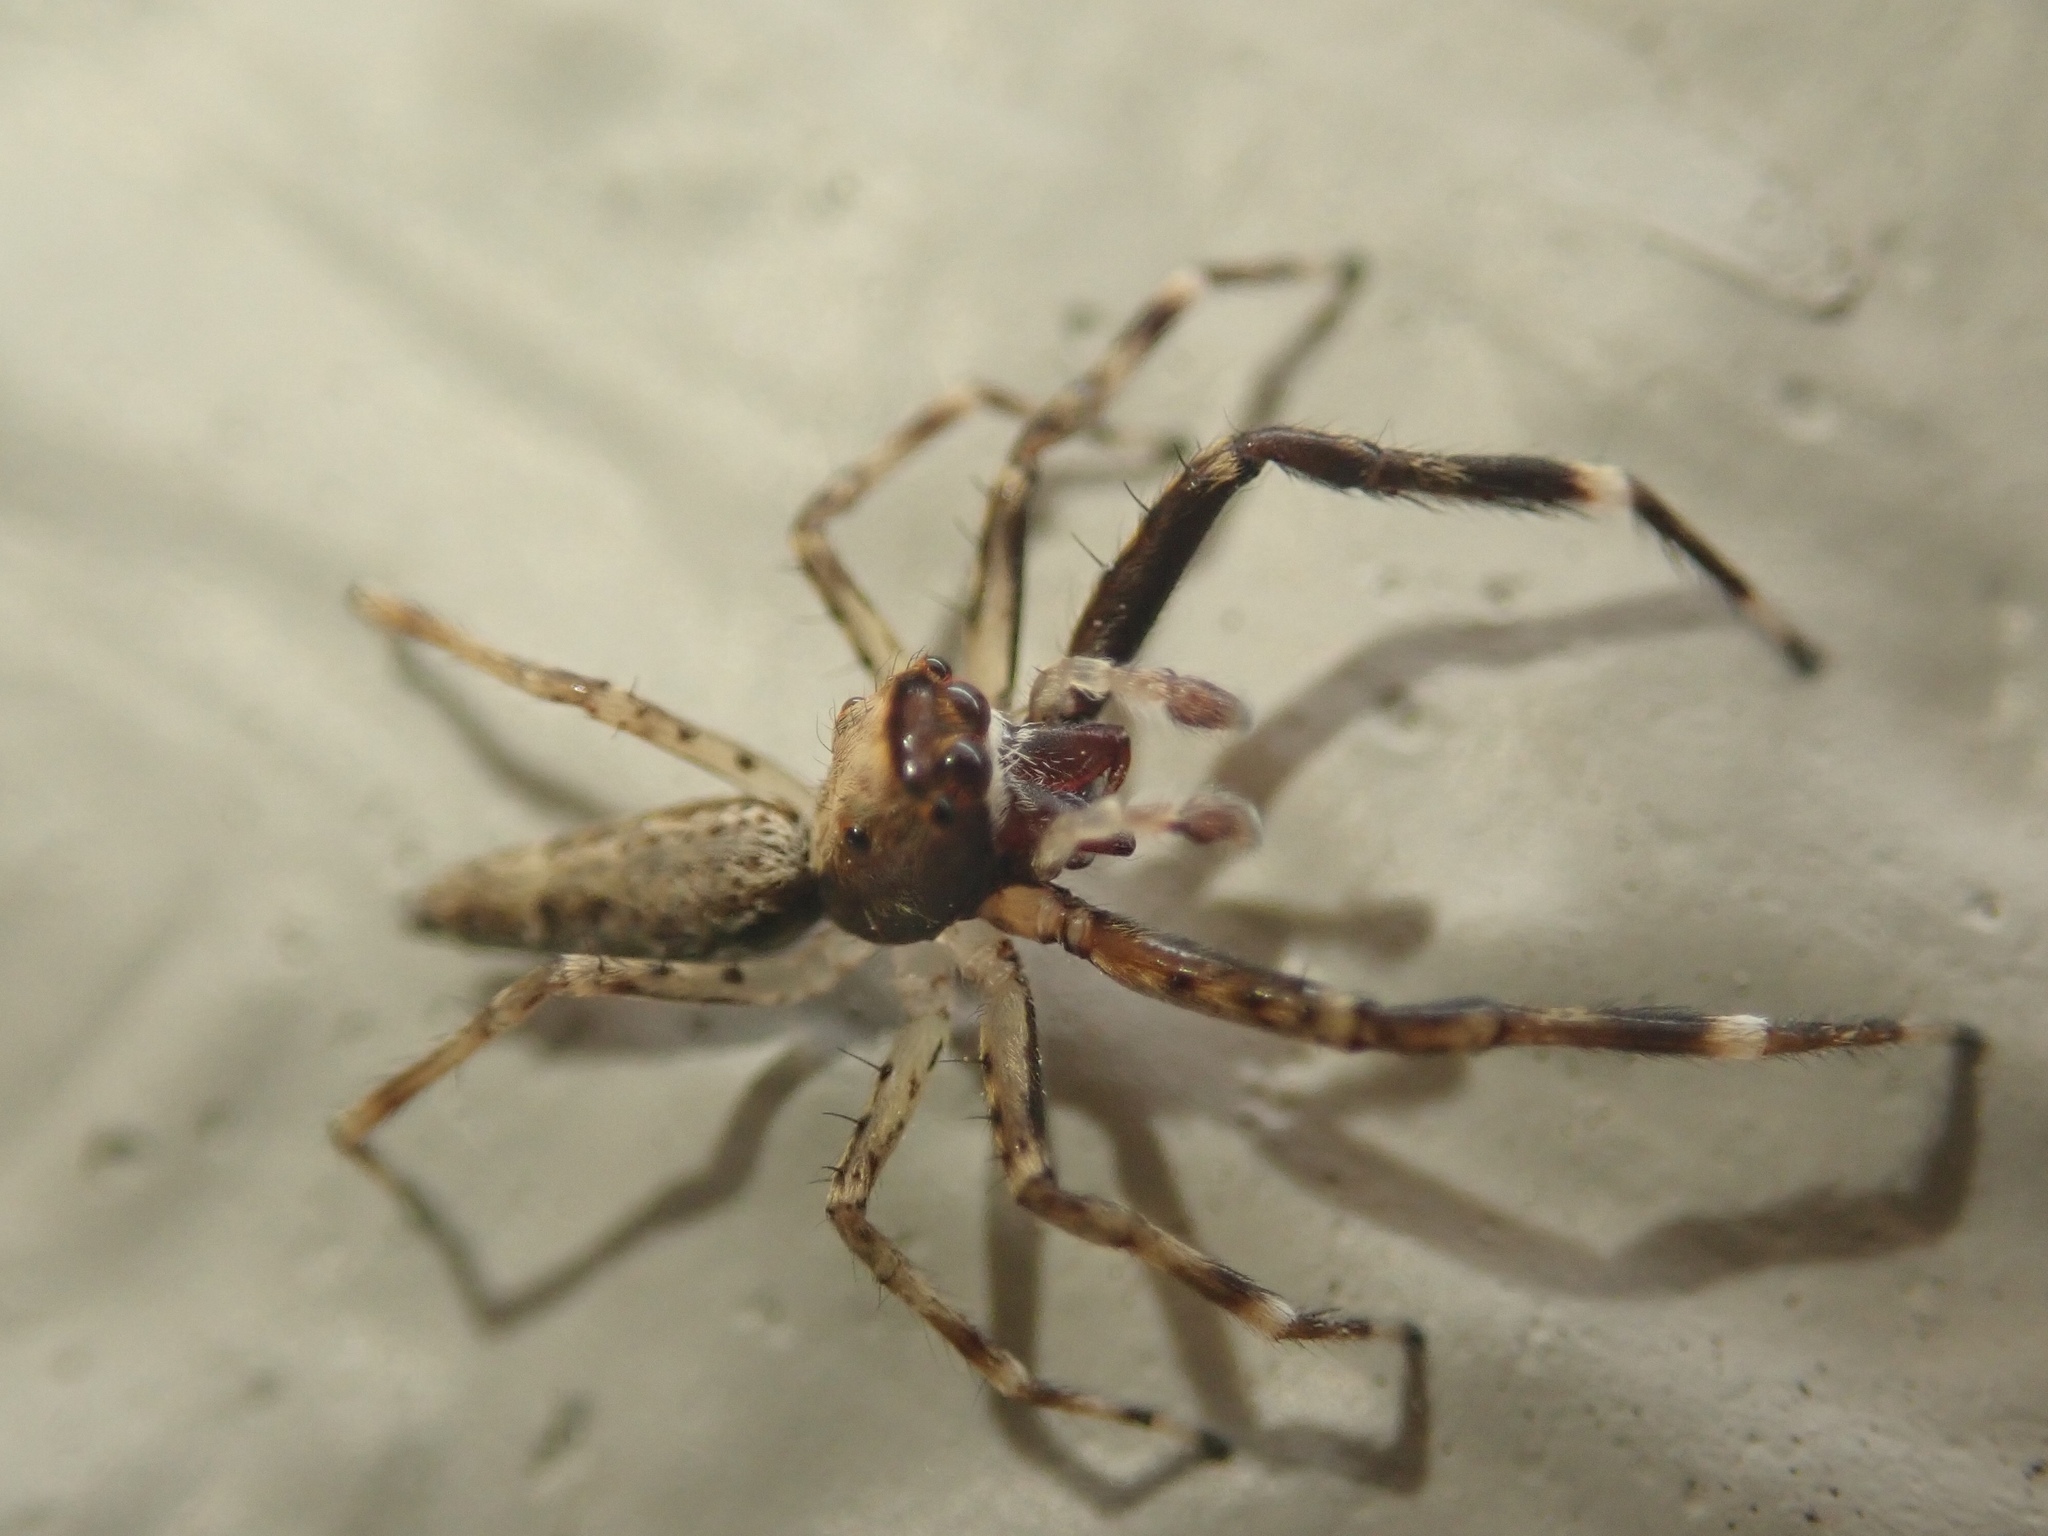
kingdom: Animalia
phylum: Arthropoda
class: Arachnida
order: Araneae
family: Salticidae
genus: Helpis
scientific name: Helpis minitabunda
